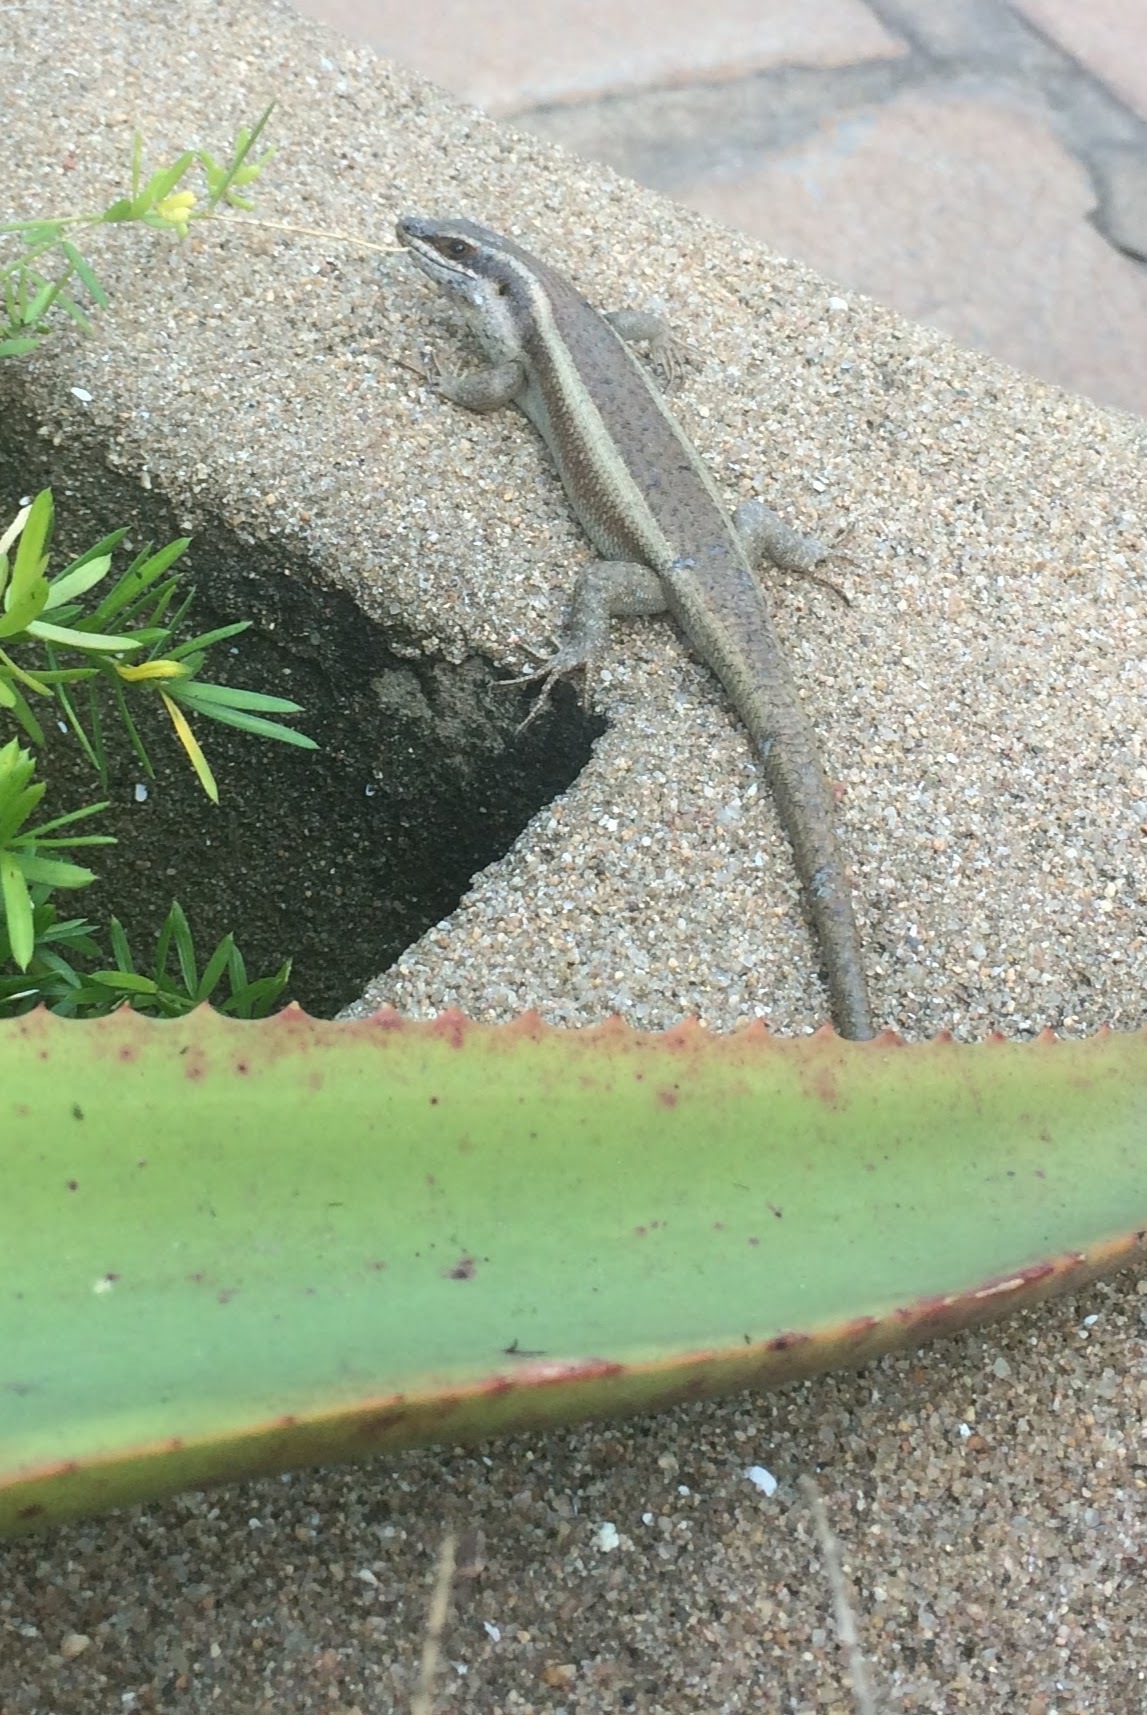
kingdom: Animalia
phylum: Chordata
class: Squamata
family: Scincidae
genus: Trachylepis
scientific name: Trachylepis striata
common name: African striped mabuya
